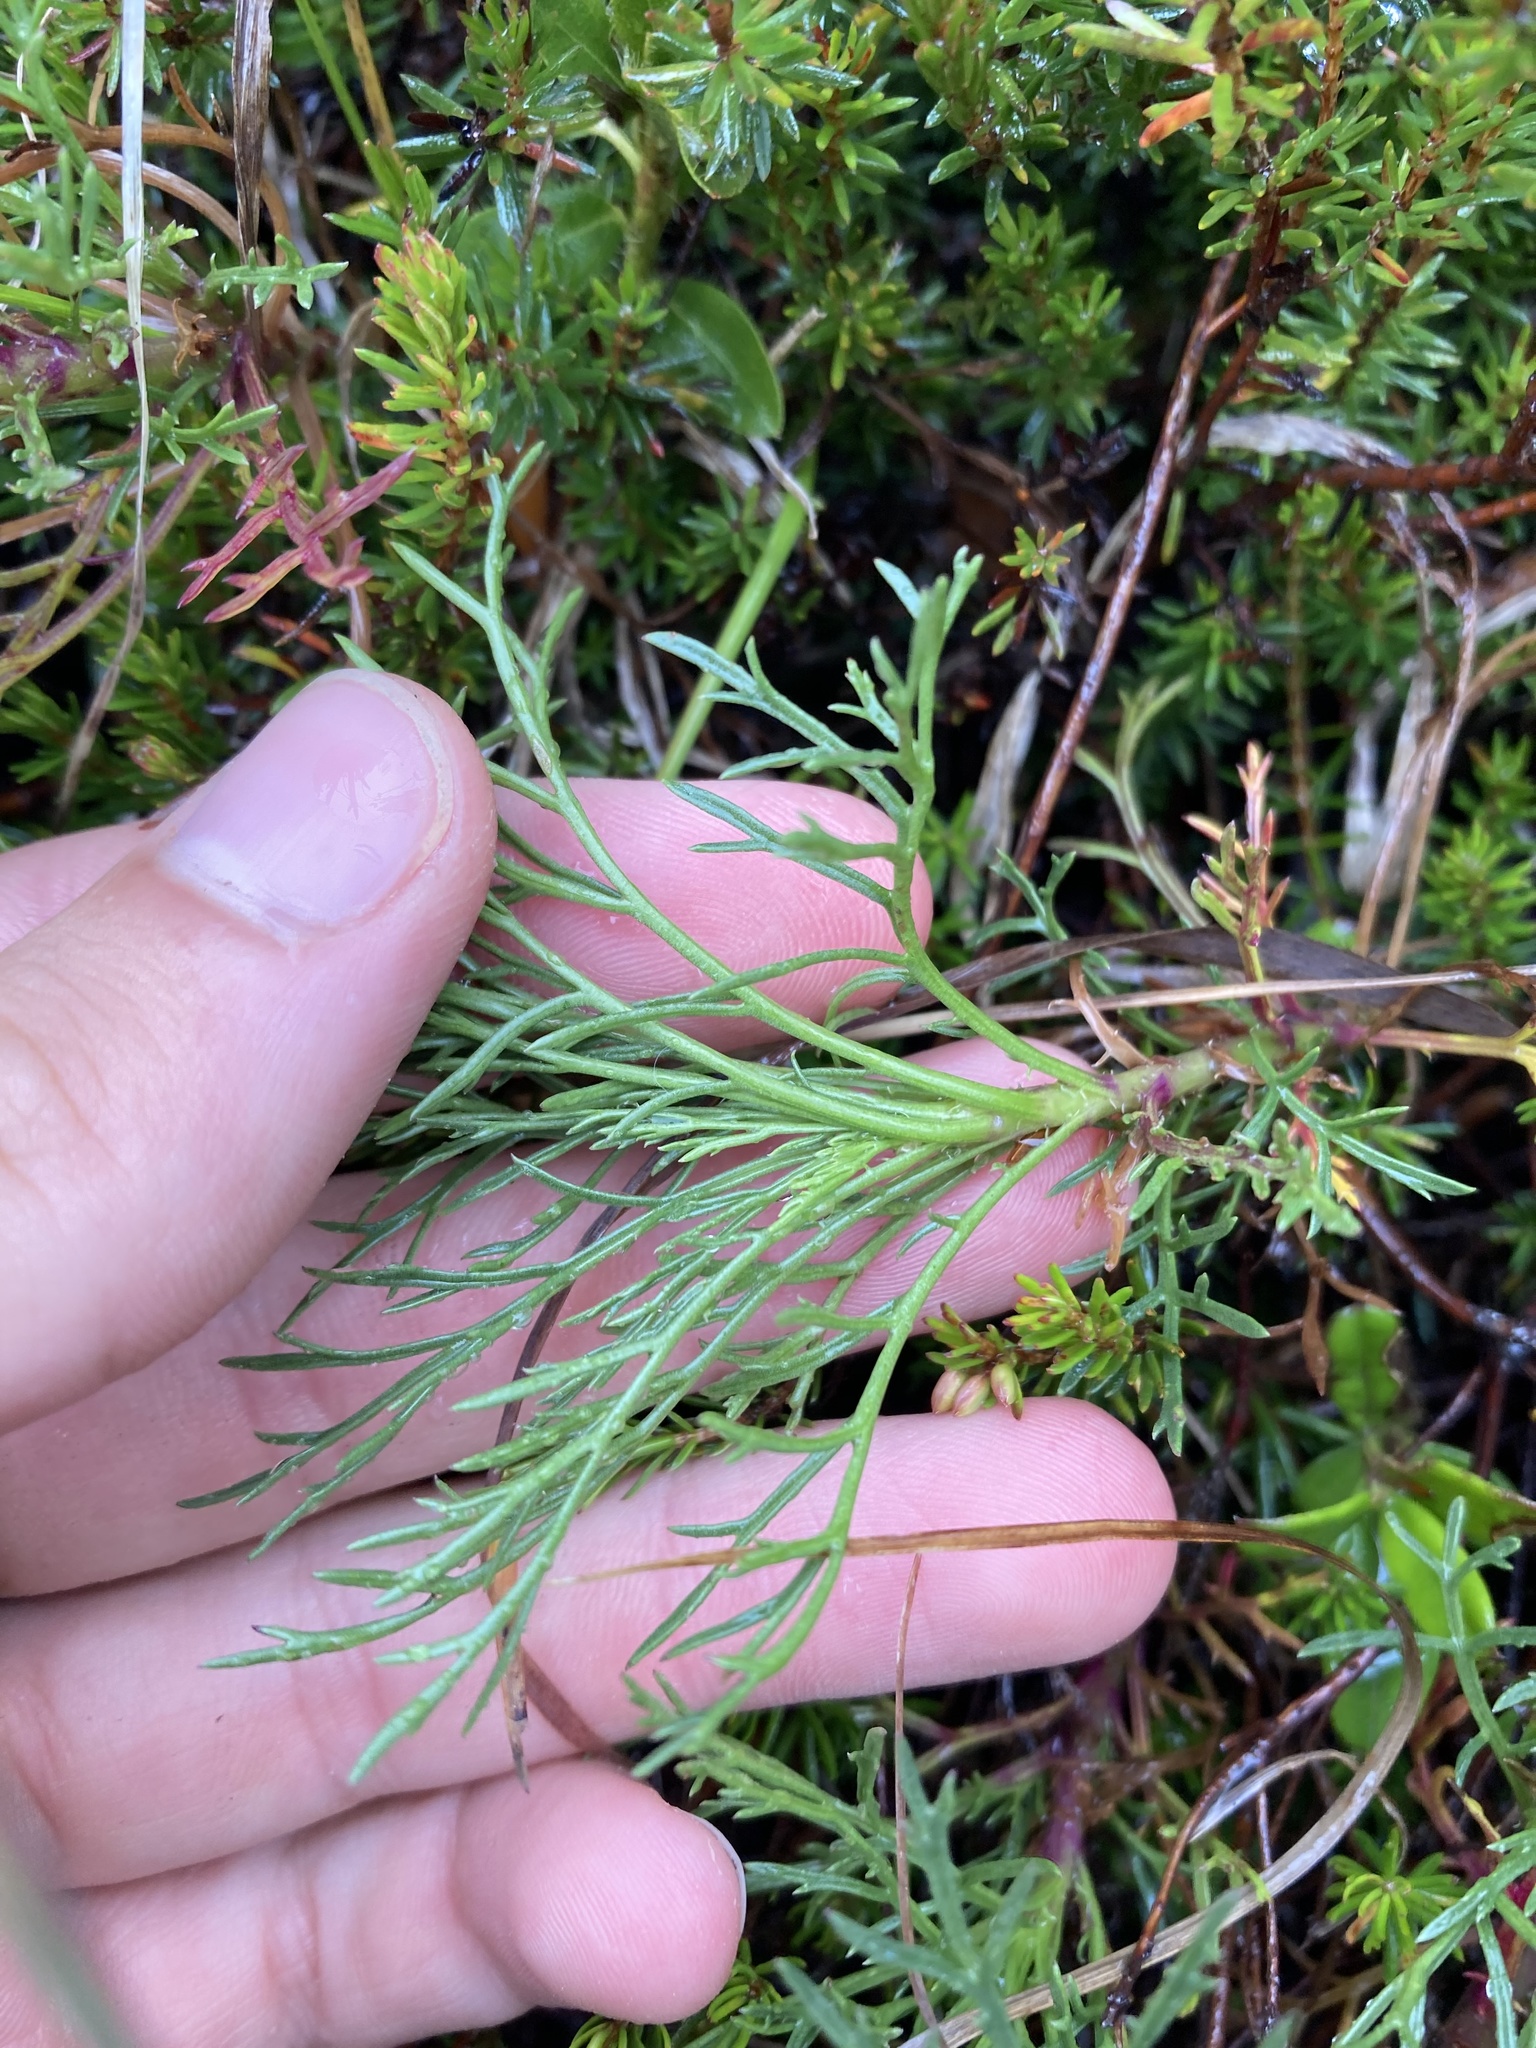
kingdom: Plantae
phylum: Tracheophyta
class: Magnoliopsida
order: Asterales
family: Asteraceae
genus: Jacobaea
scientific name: Jacobaea abrotanifolia
